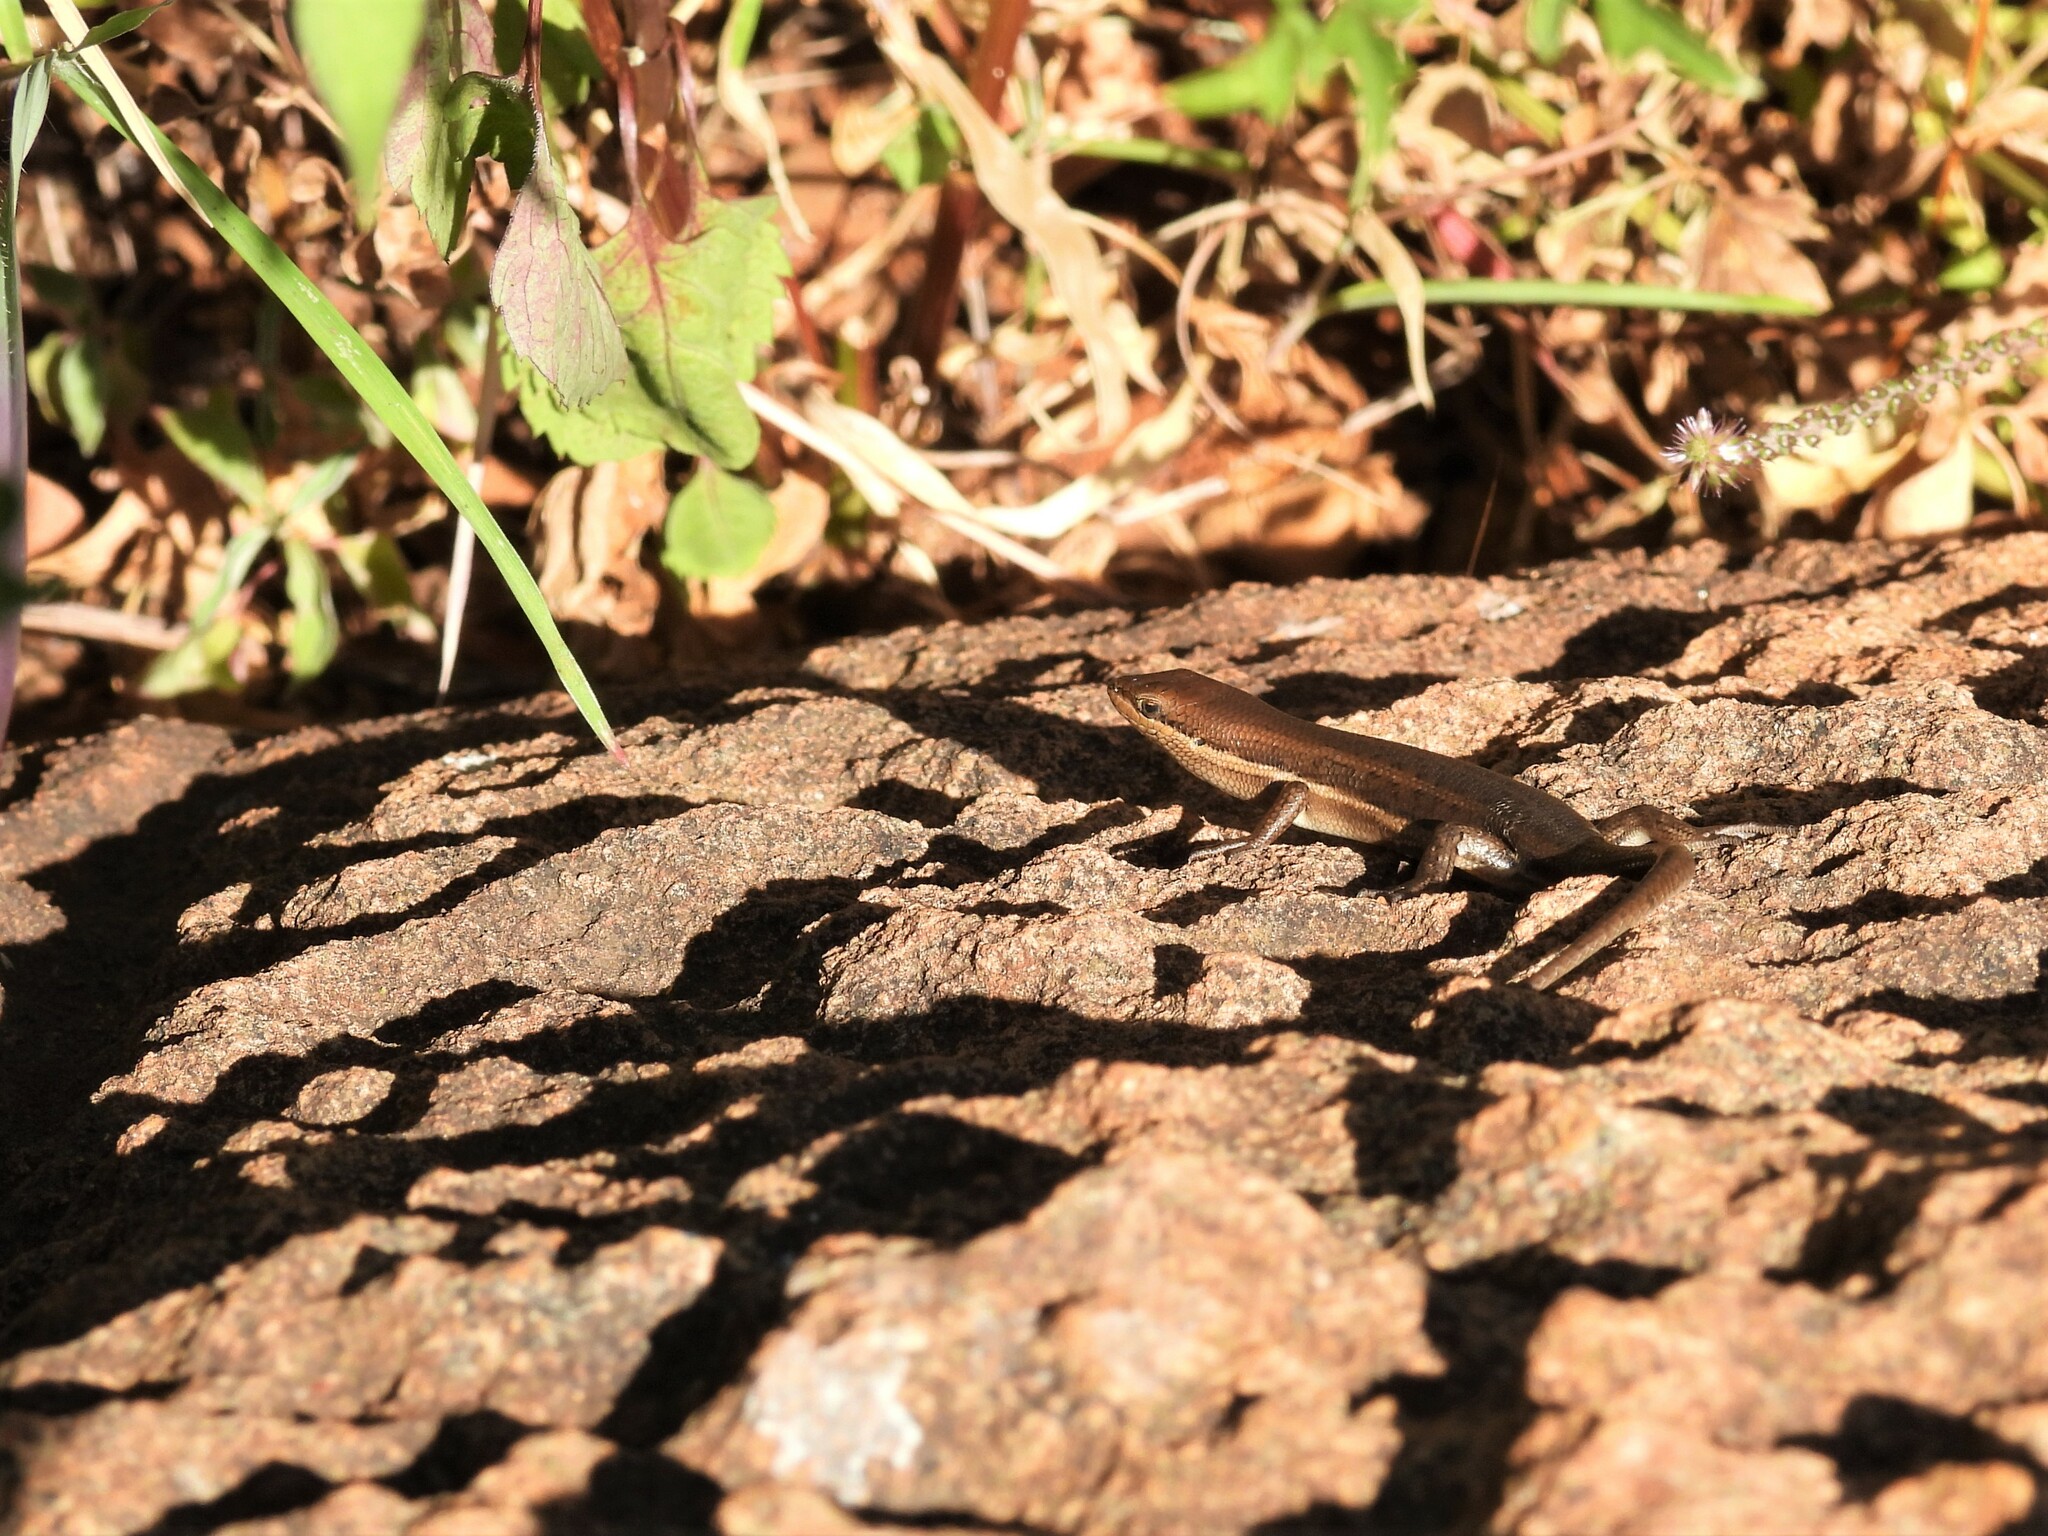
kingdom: Animalia
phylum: Chordata
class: Squamata
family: Scincidae
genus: Trachylepis
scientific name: Trachylepis varia
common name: Eastern variable skink
